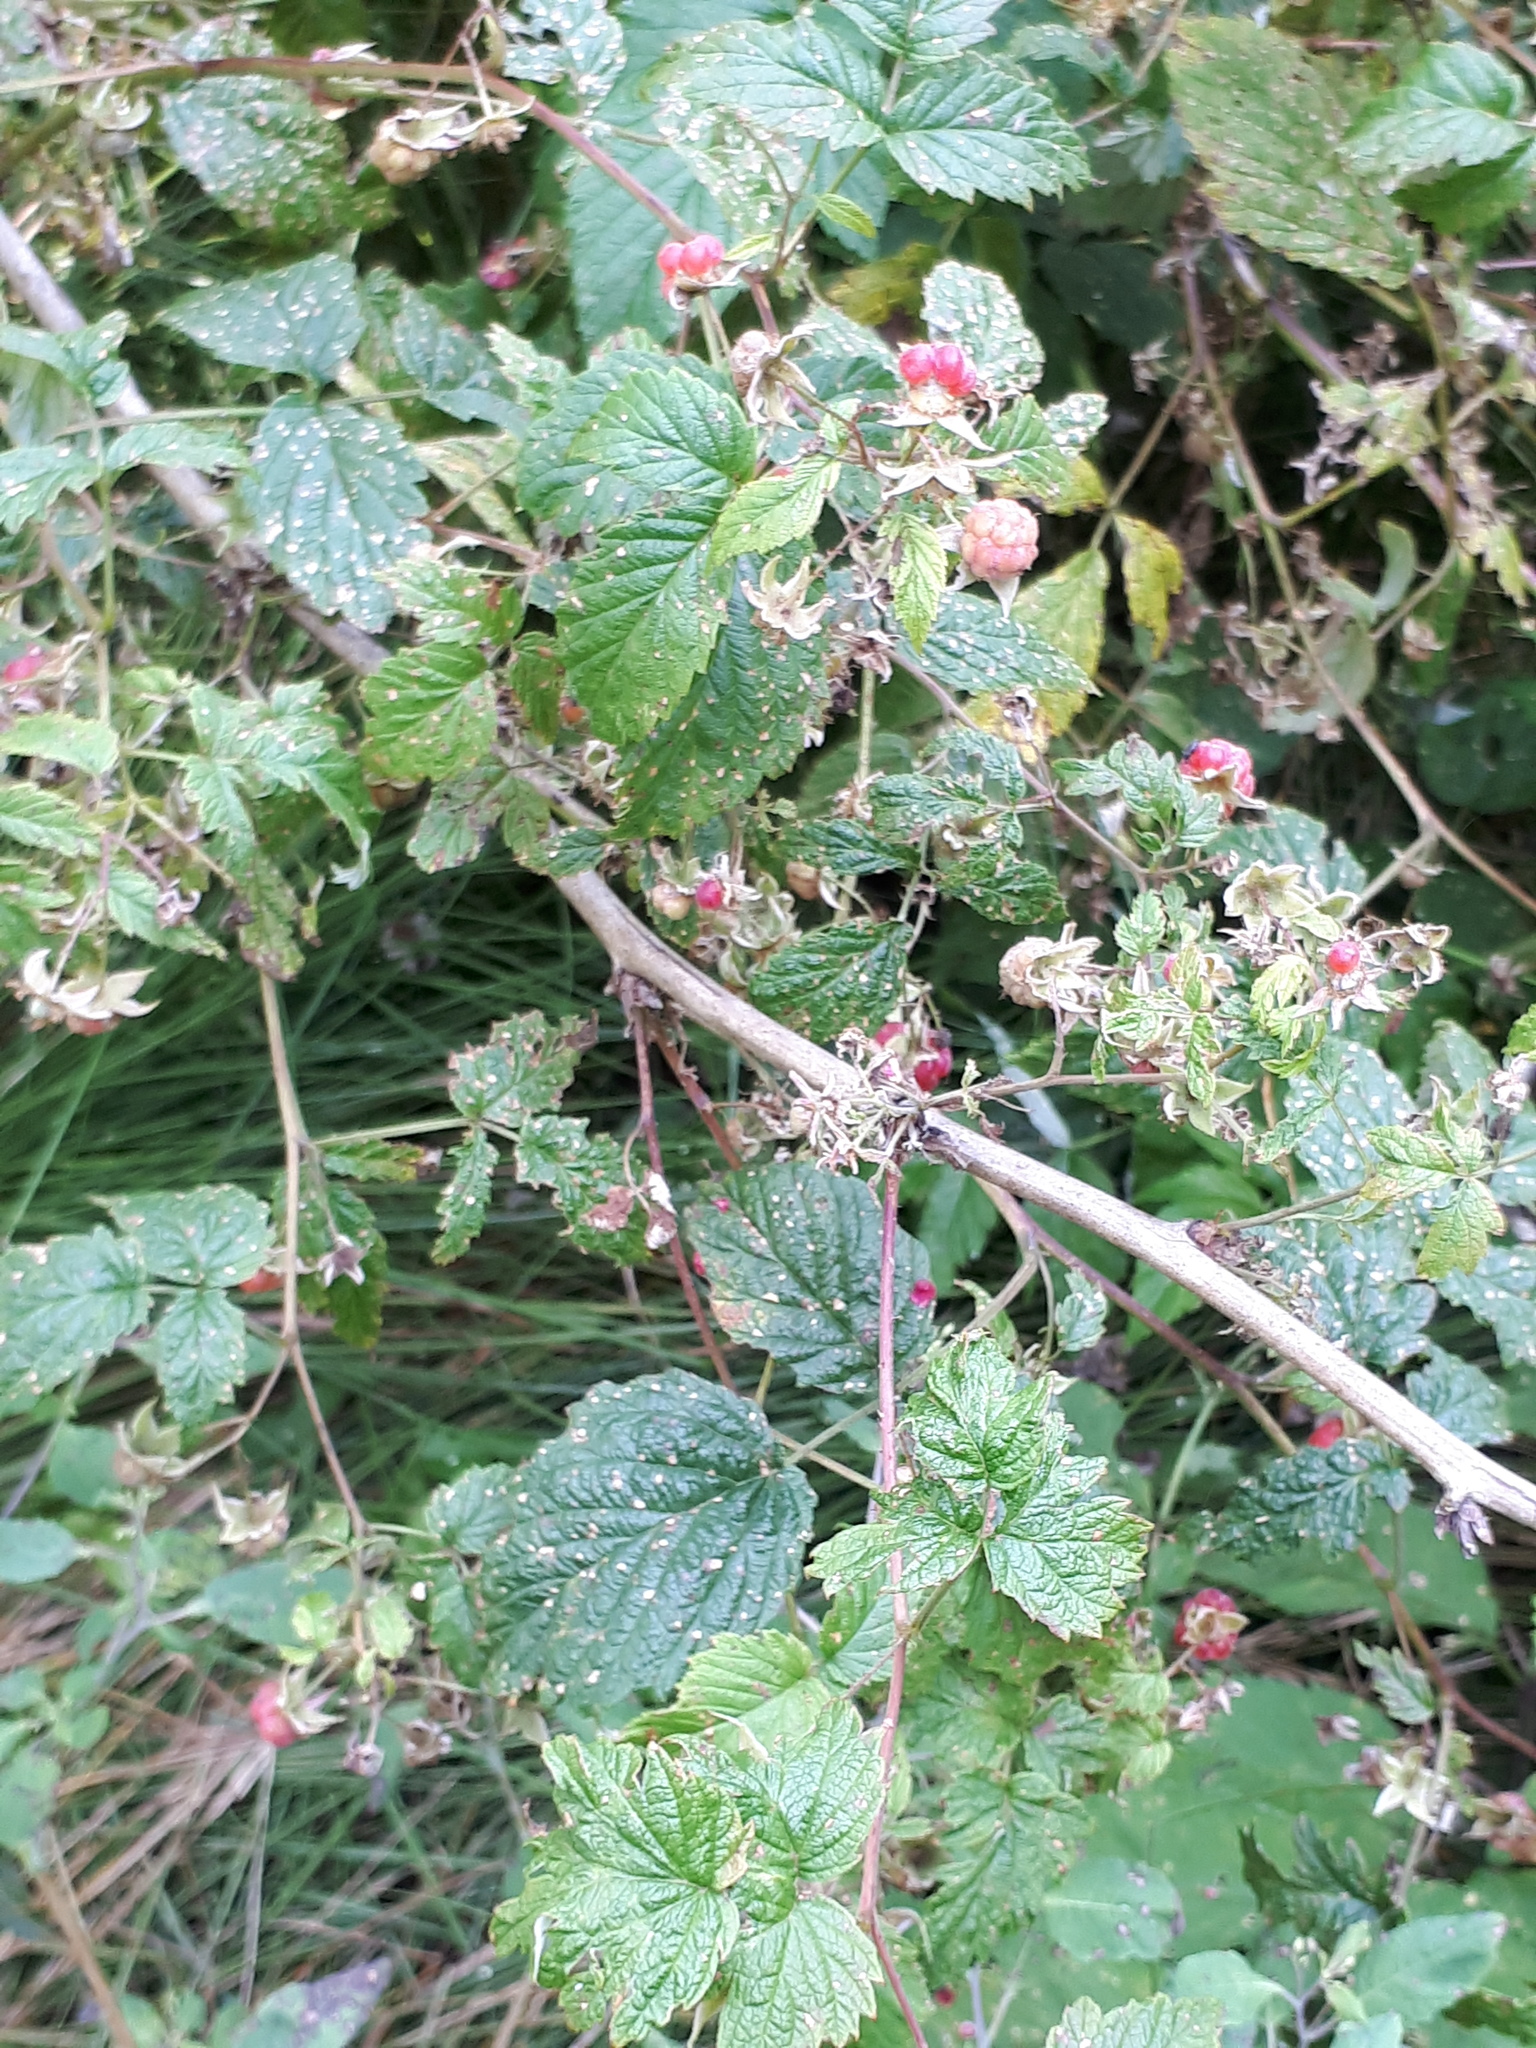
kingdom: Plantae
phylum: Tracheophyta
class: Magnoliopsida
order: Rosales
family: Rosaceae
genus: Rubus
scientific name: Rubus idaeus
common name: Raspberry
